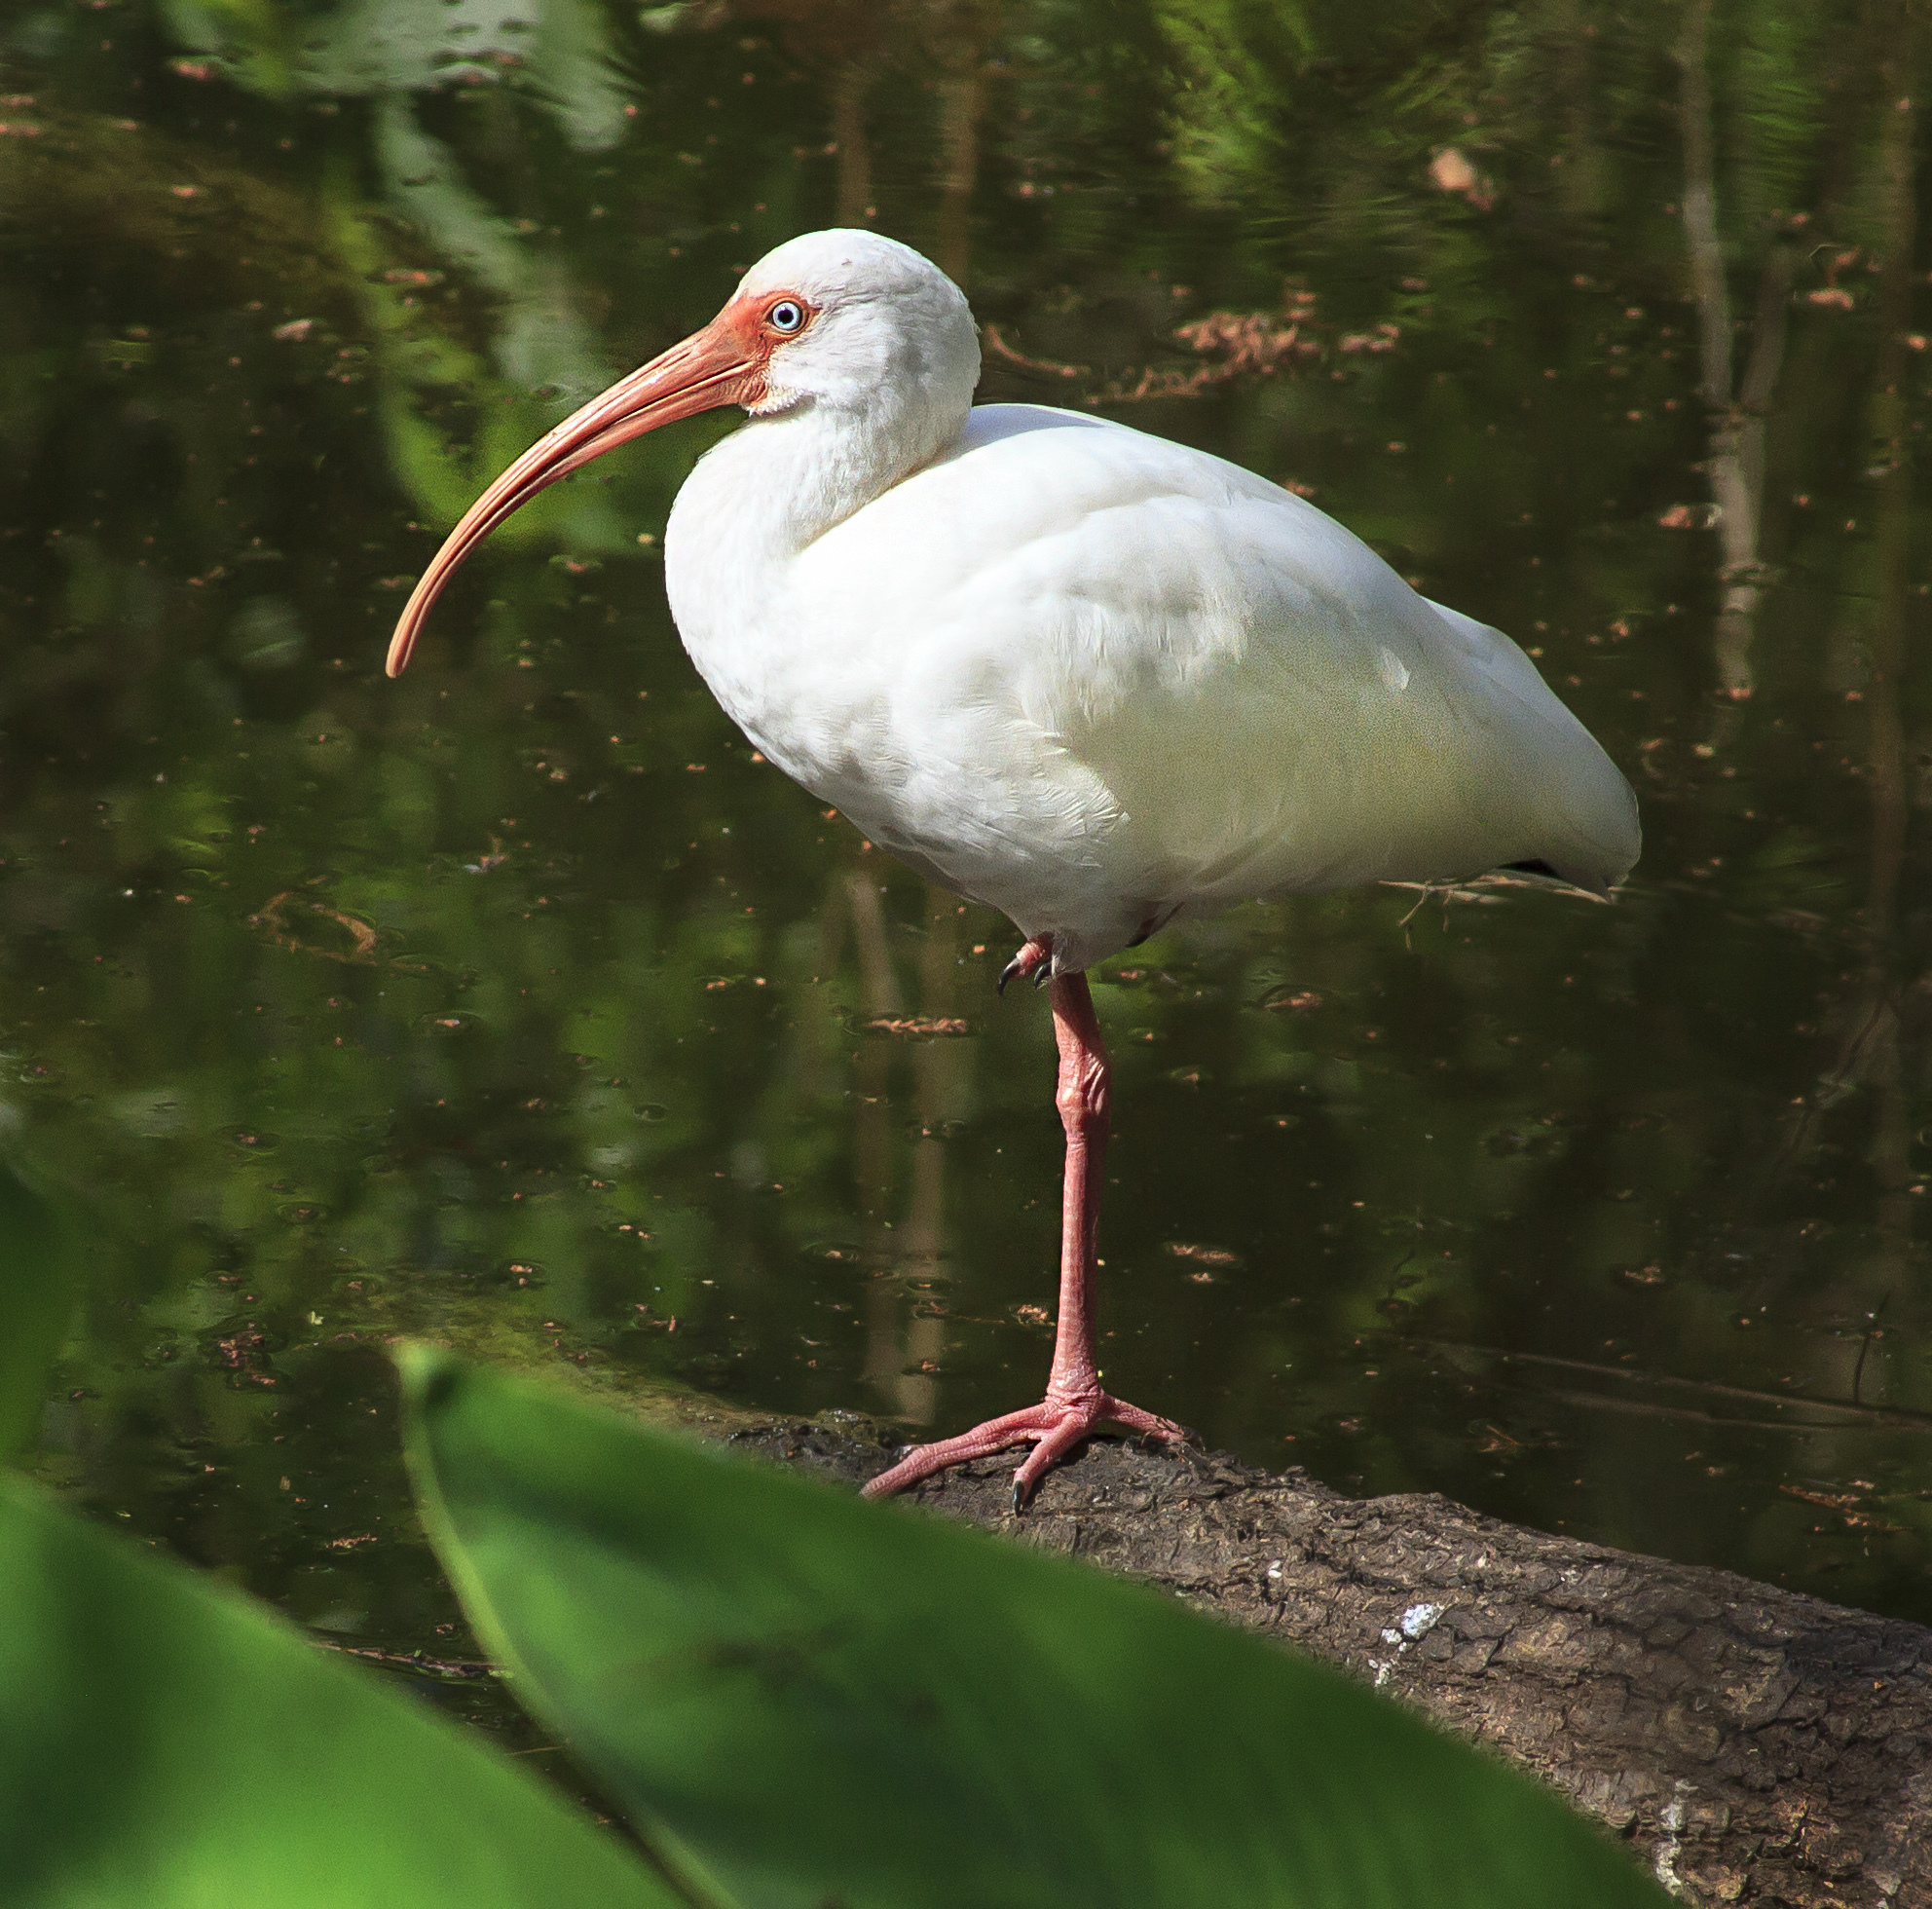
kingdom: Animalia
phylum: Chordata
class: Aves
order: Pelecaniformes
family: Threskiornithidae
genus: Eudocimus
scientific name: Eudocimus albus
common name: White ibis
